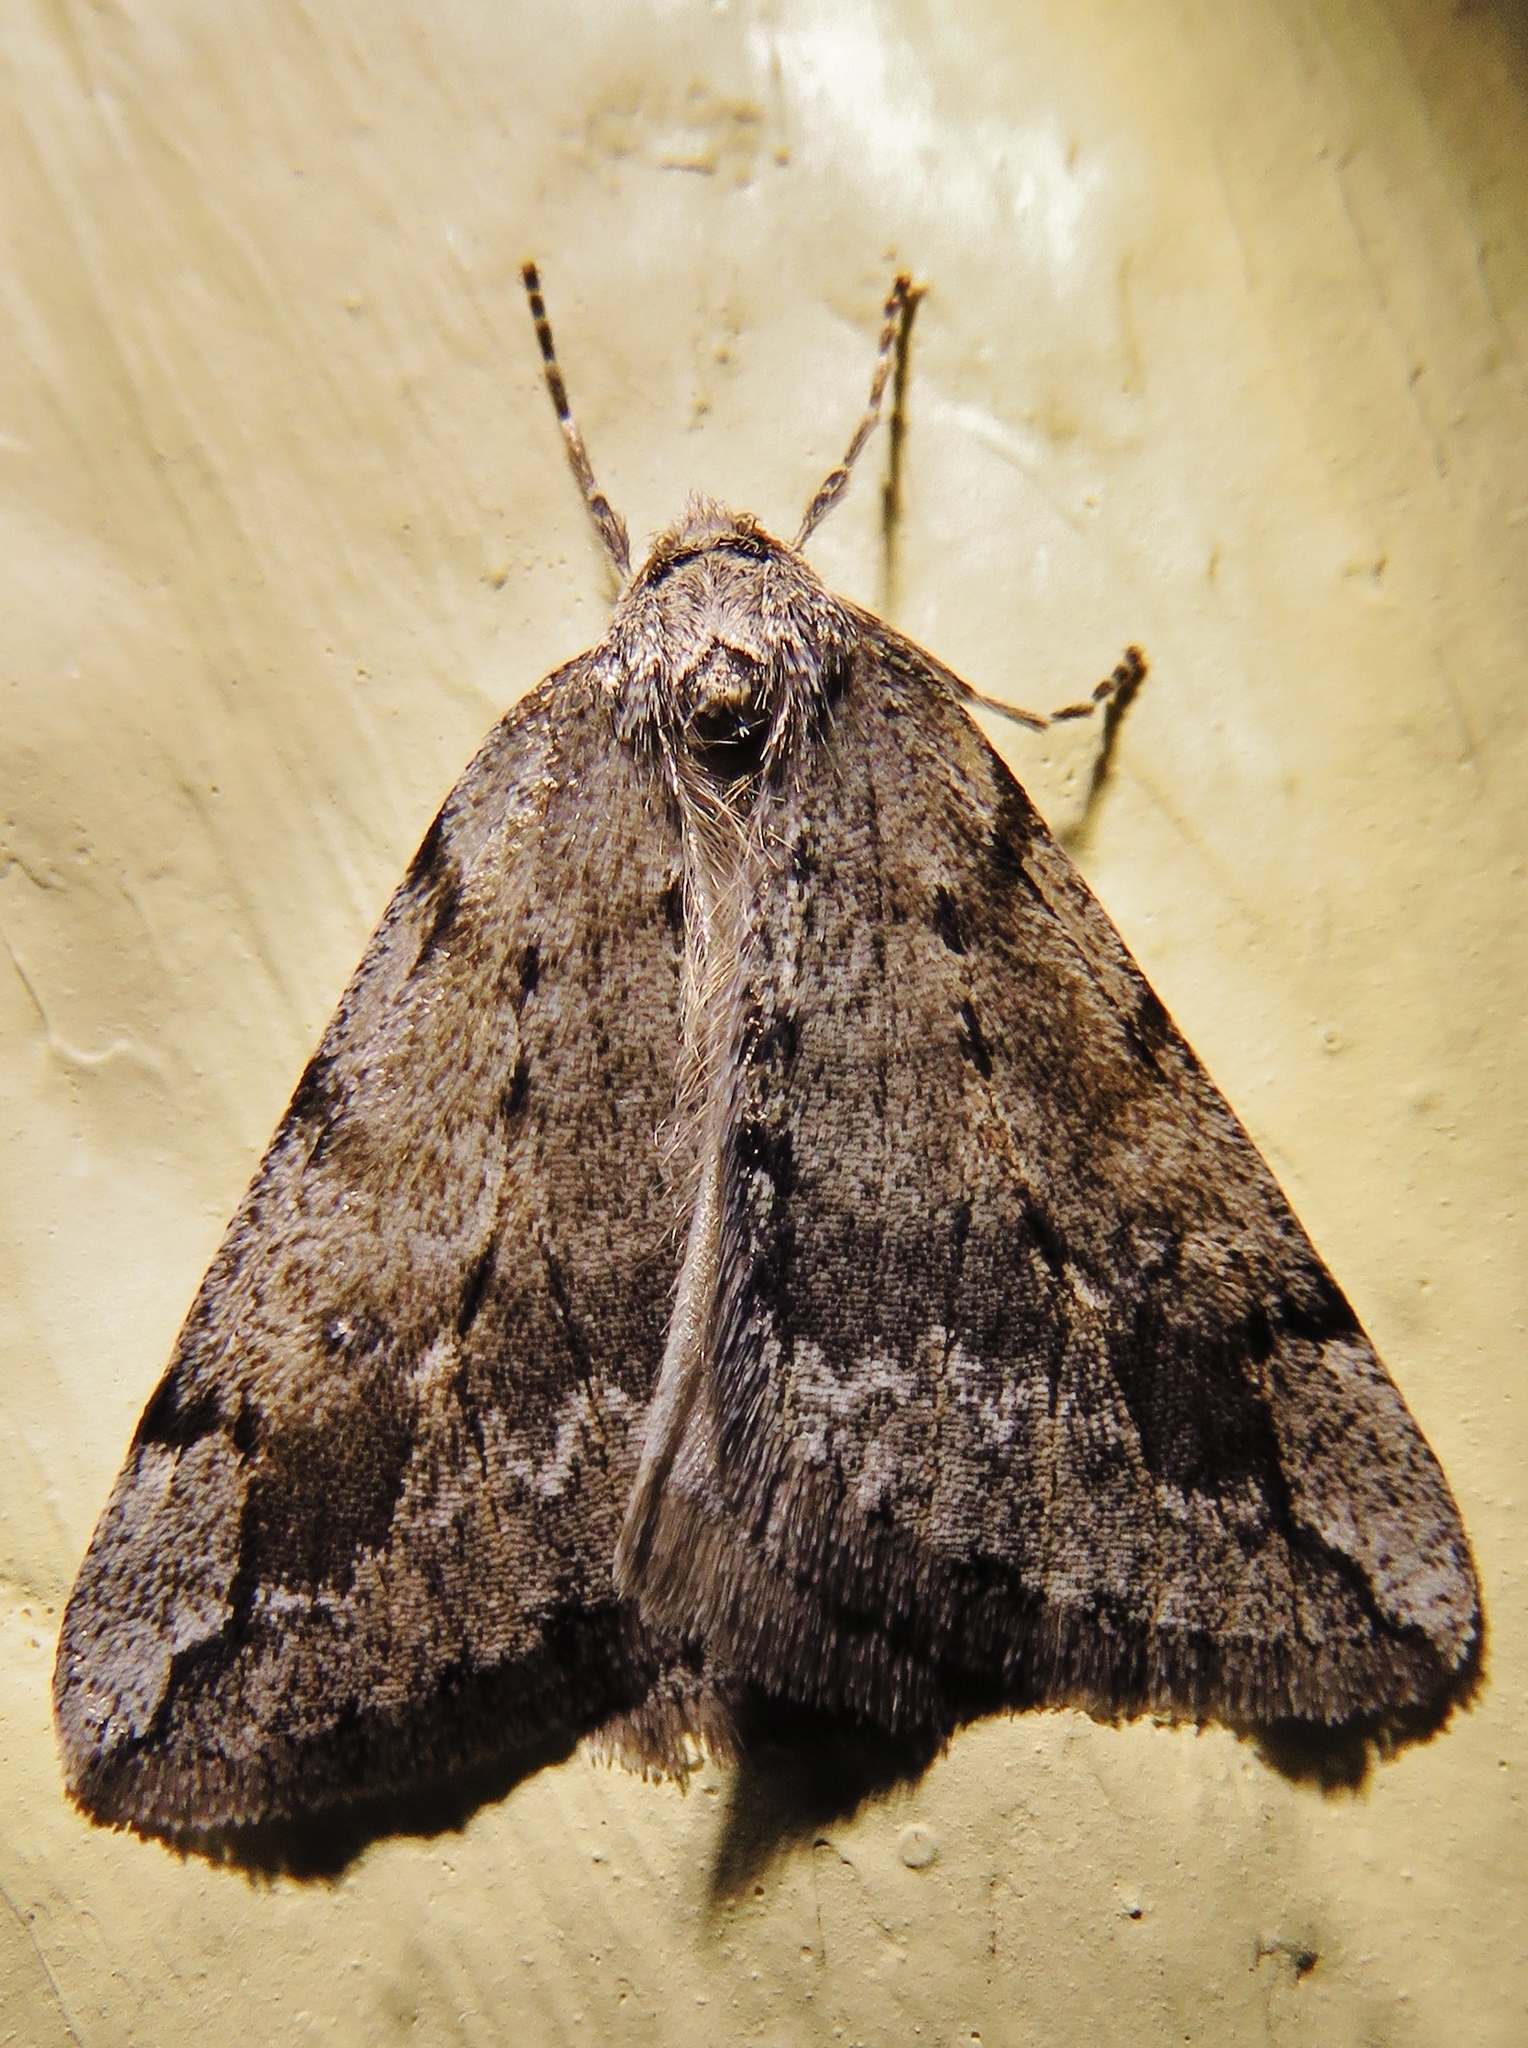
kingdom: Animalia
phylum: Arthropoda
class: Insecta
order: Lepidoptera
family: Geometridae
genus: Paleacrita
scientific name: Paleacrita vernata
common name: Spring cankerworm
